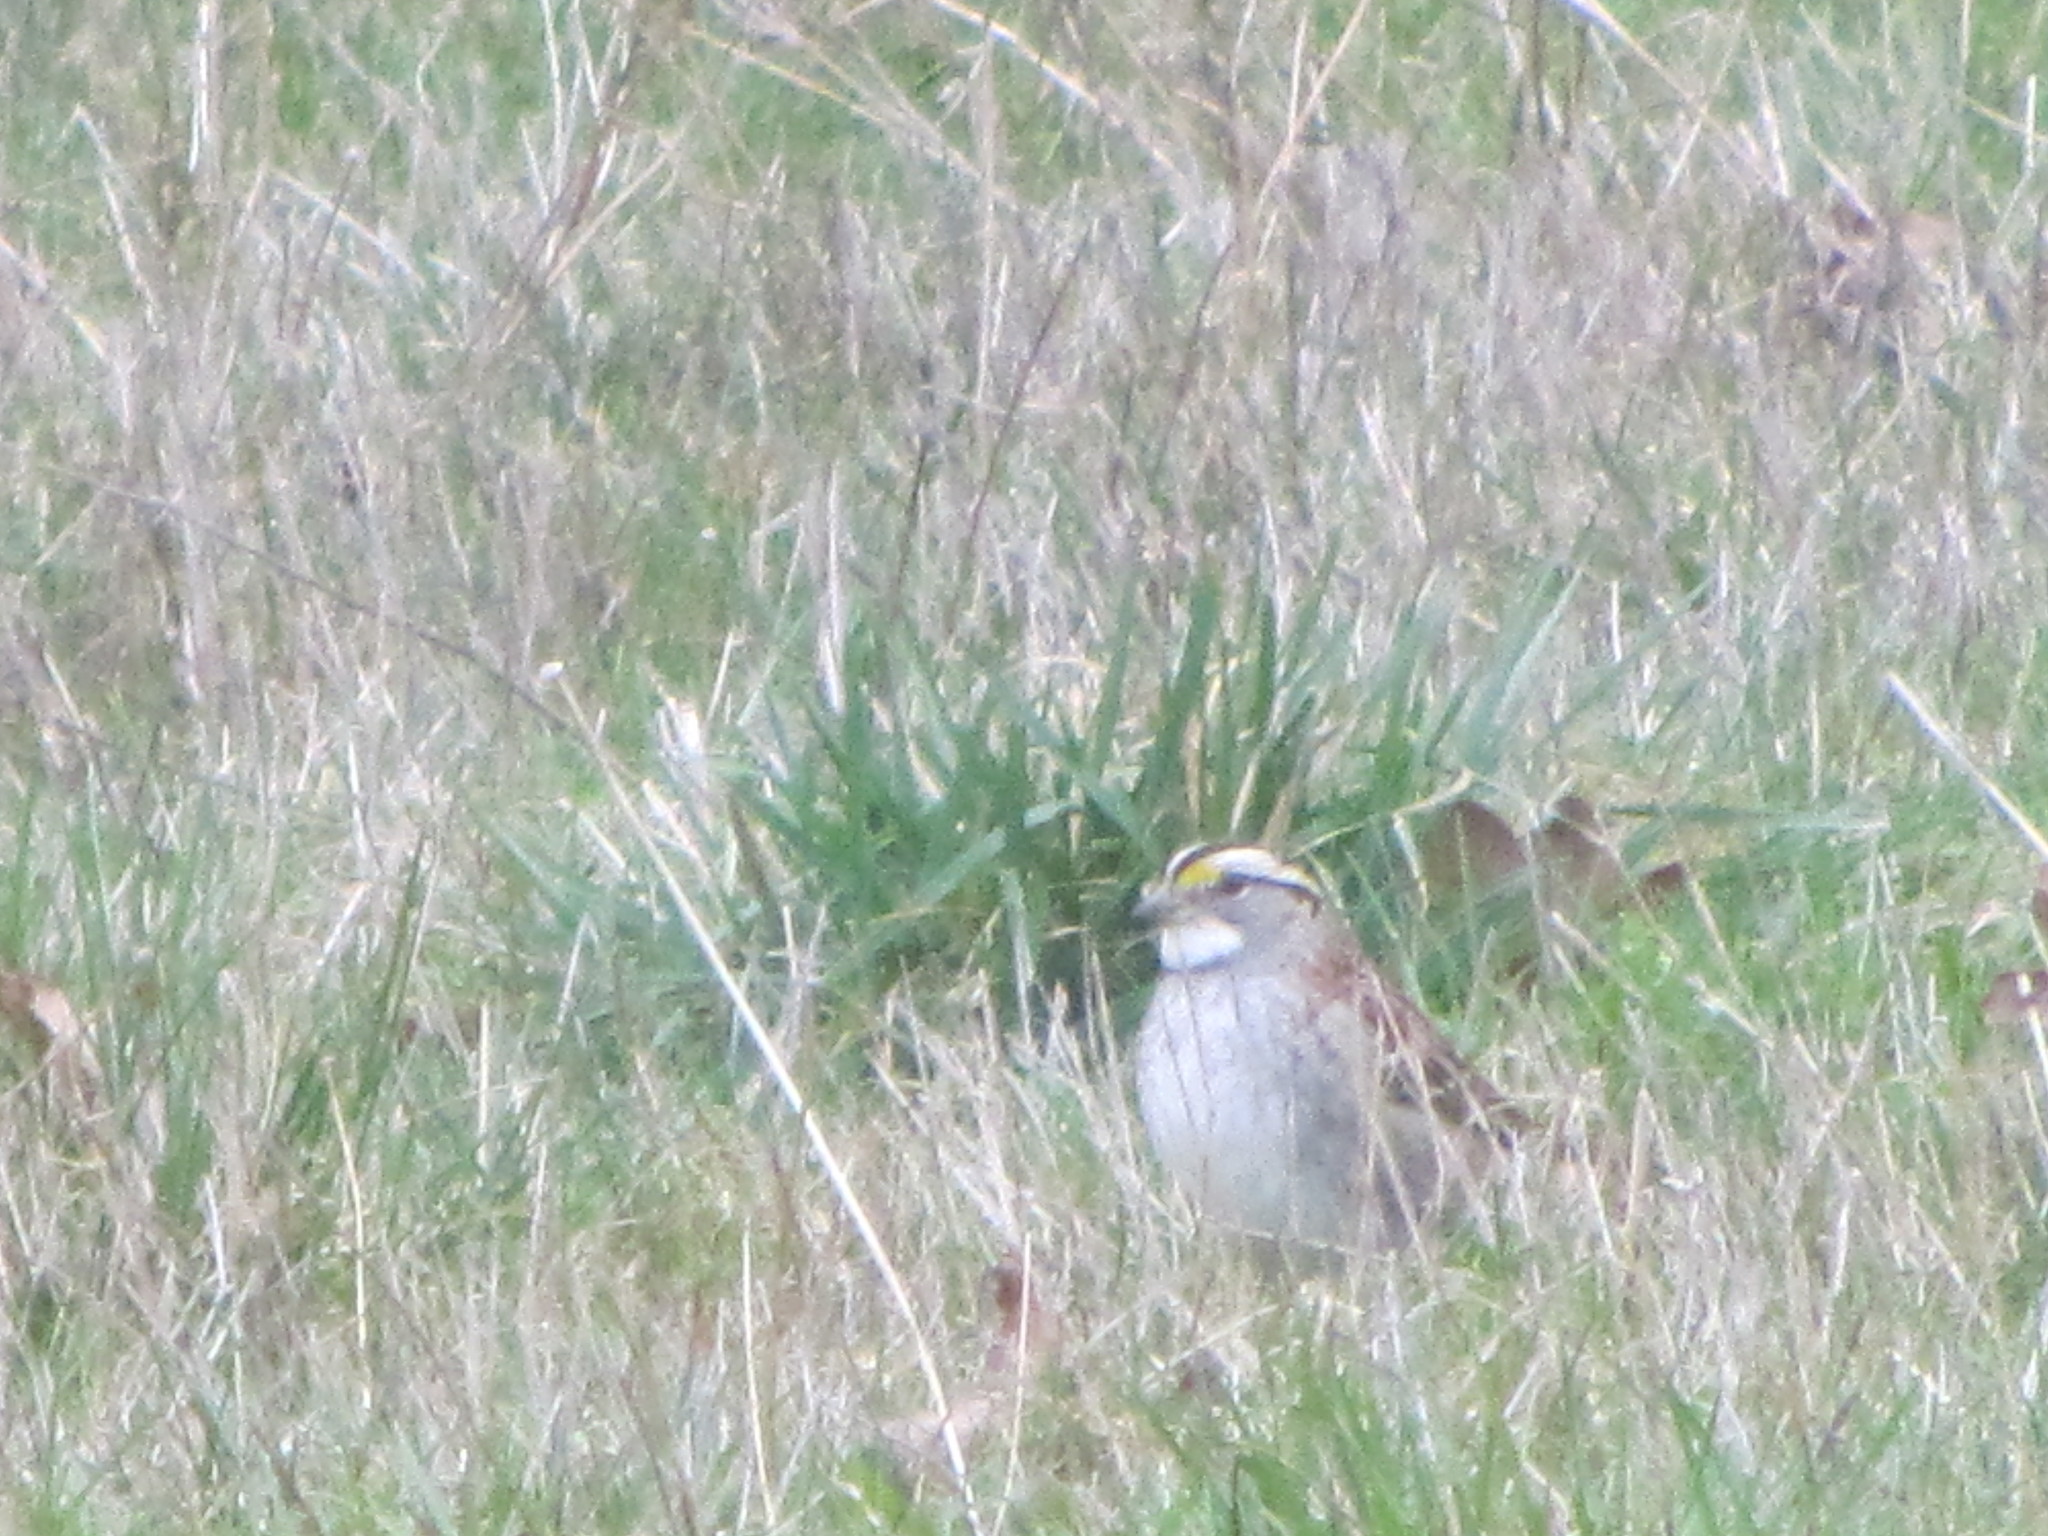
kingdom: Animalia
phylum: Chordata
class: Aves
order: Passeriformes
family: Passerellidae
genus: Zonotrichia
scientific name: Zonotrichia albicollis
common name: White-throated sparrow
